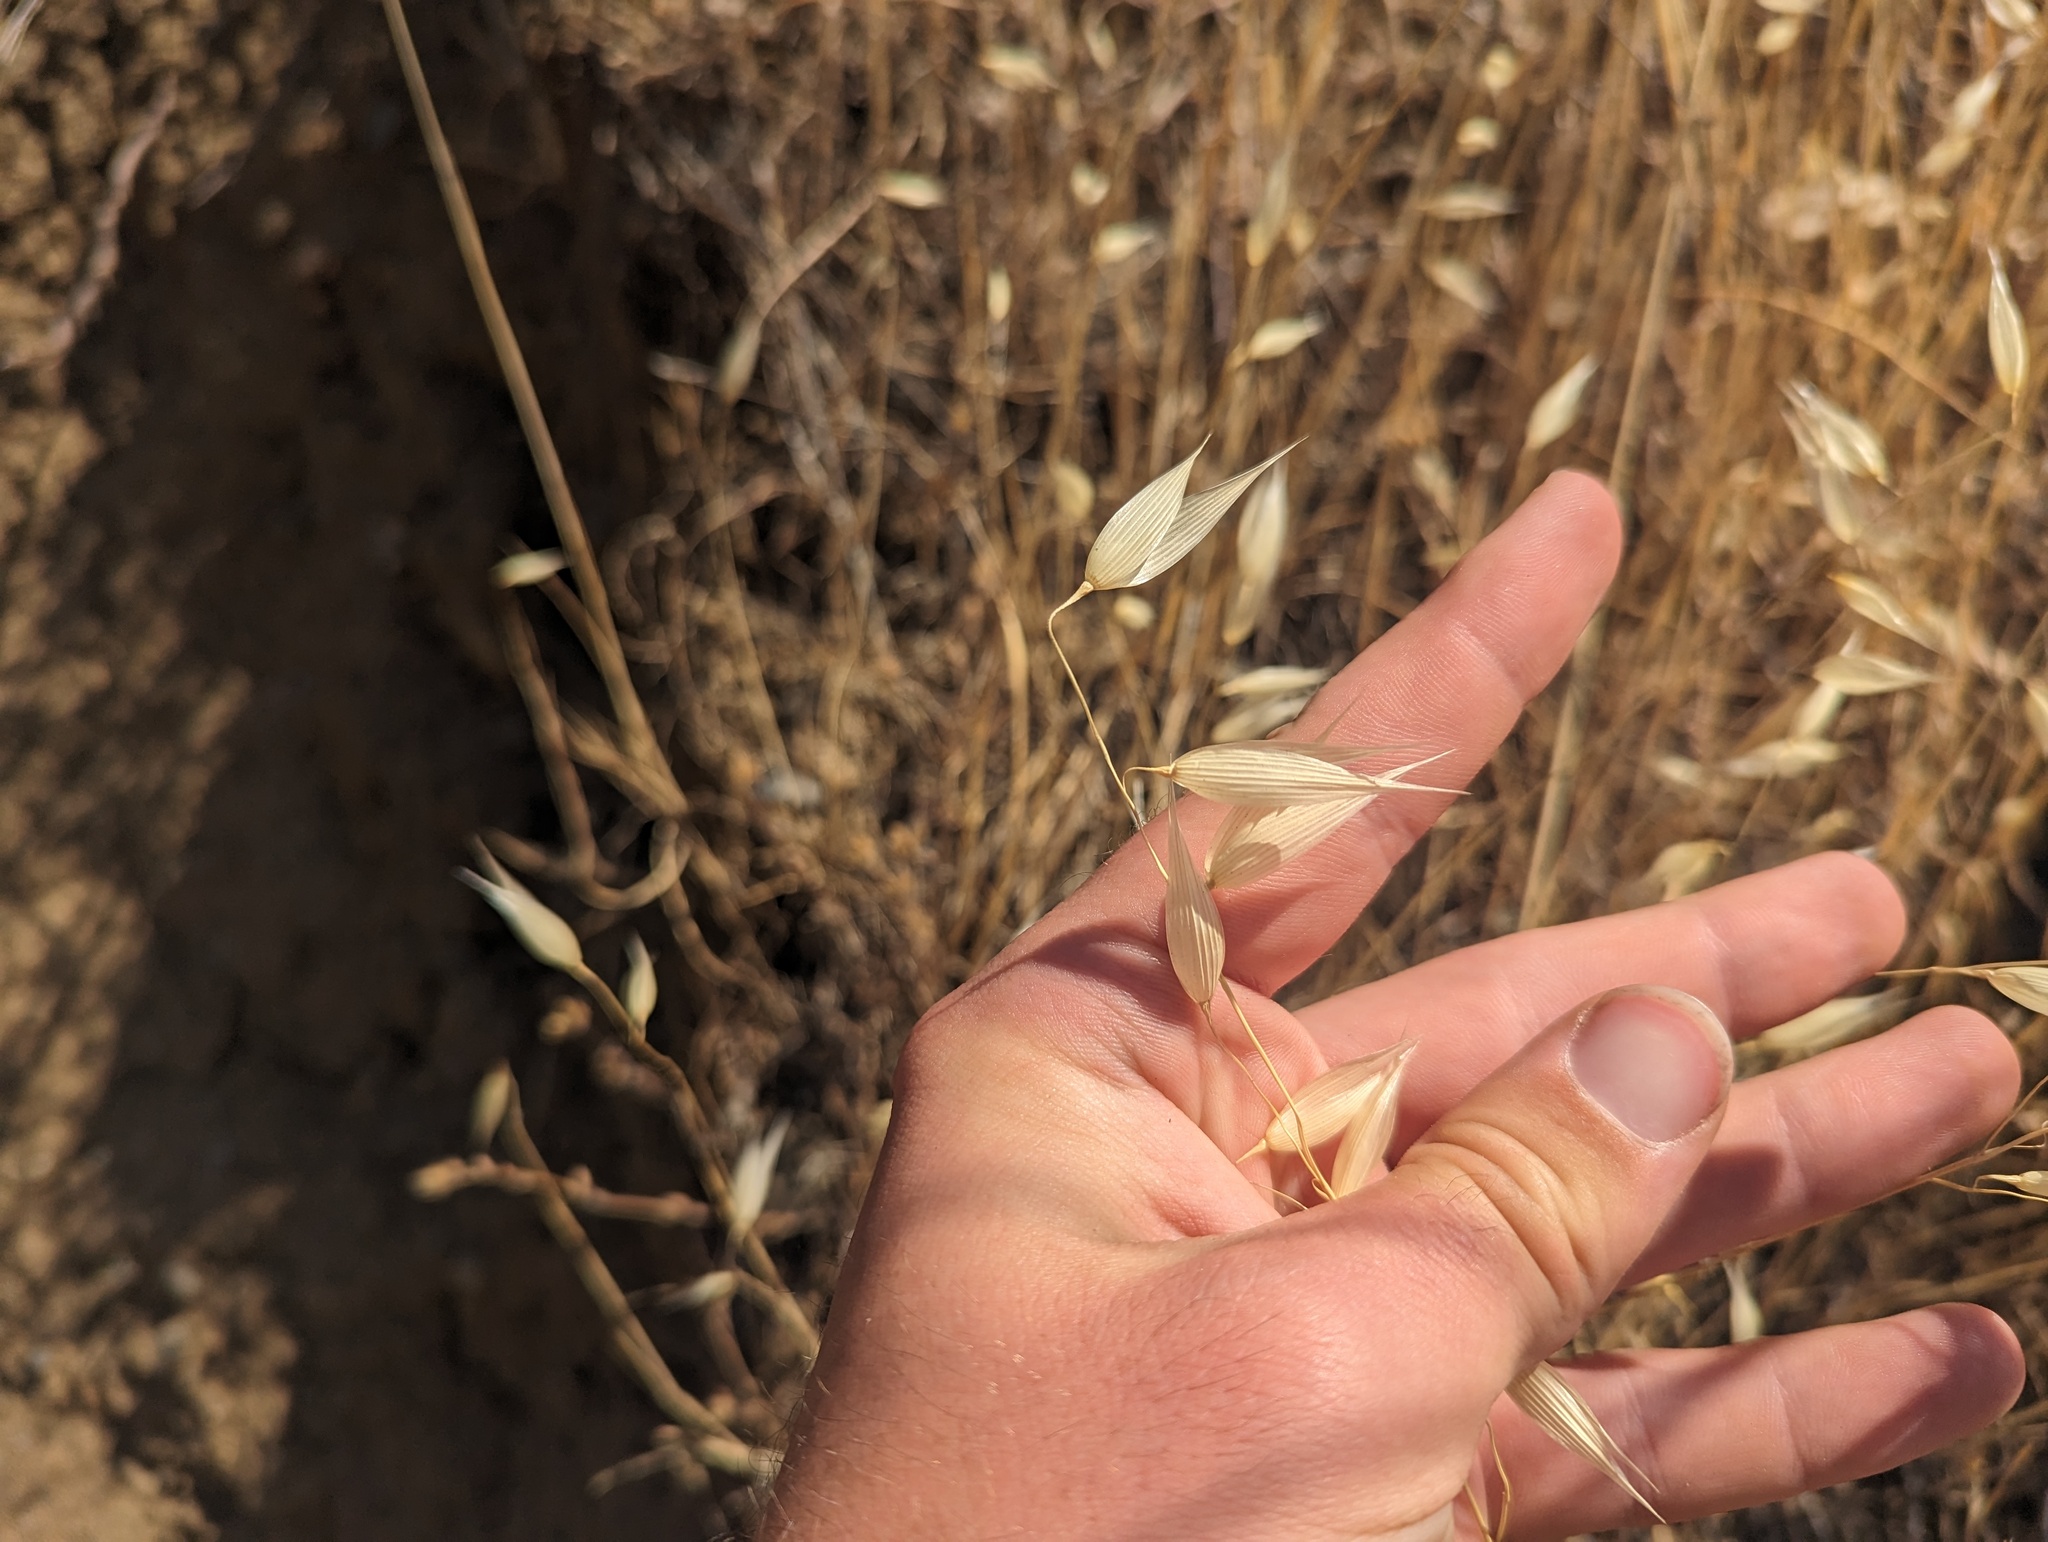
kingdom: Plantae
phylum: Tracheophyta
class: Liliopsida
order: Poales
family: Poaceae
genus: Avena
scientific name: Avena fatua
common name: Wild oat
